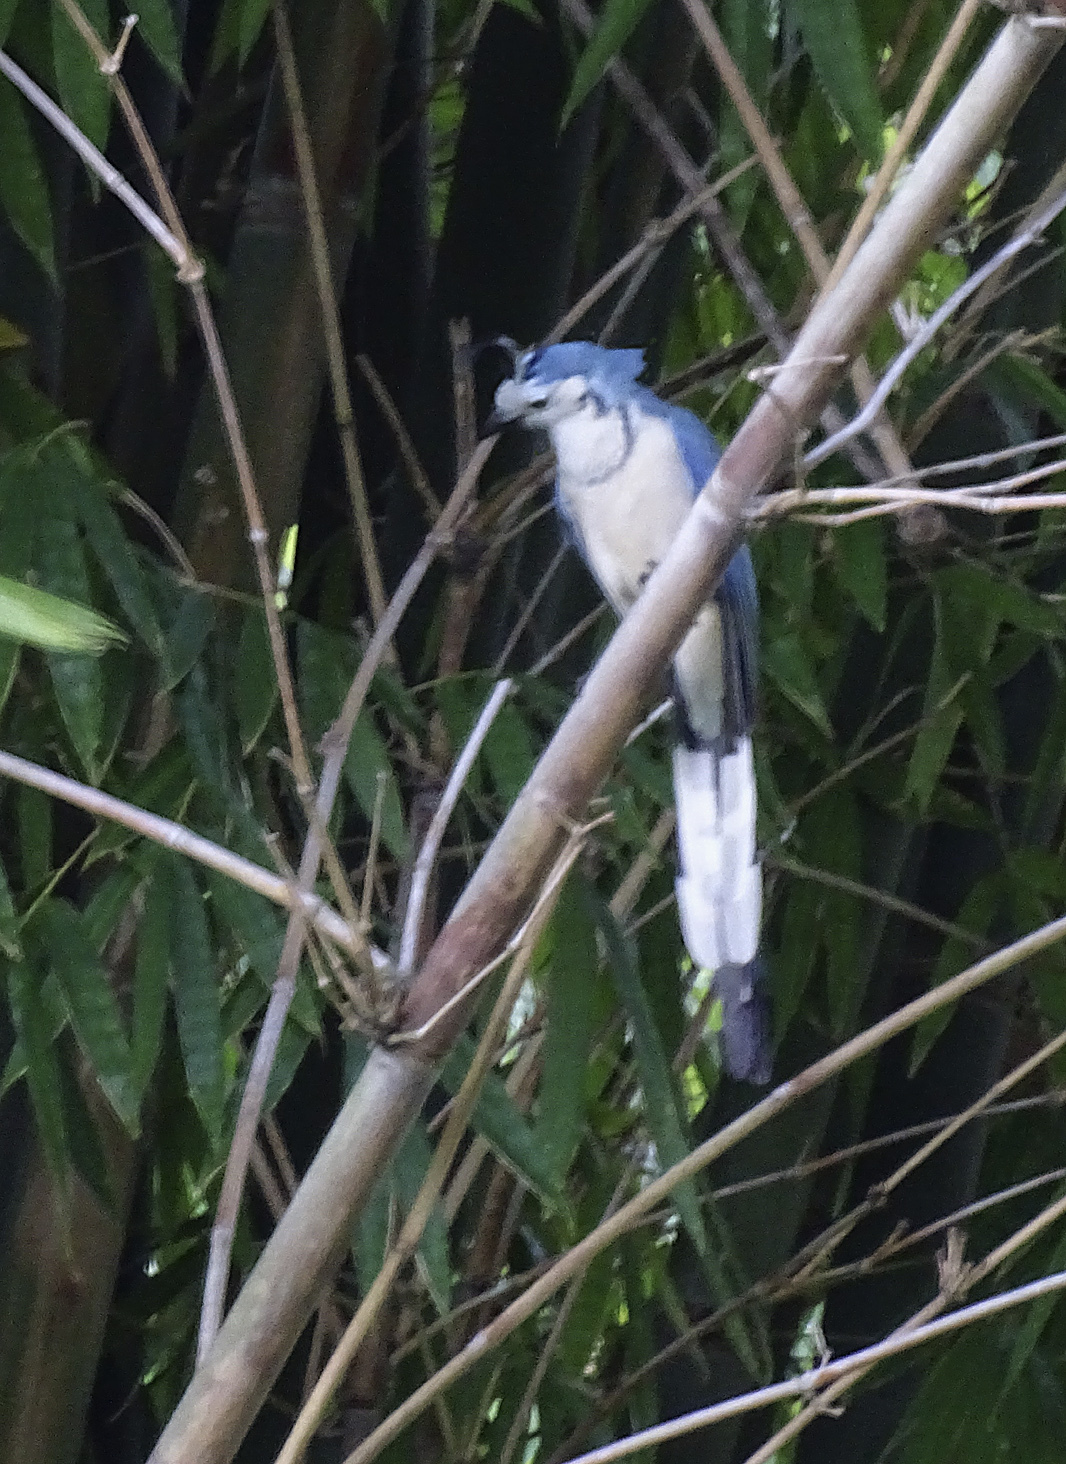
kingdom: Animalia
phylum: Chordata
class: Aves
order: Passeriformes
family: Corvidae
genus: Calocitta
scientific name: Calocitta formosa
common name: White-throated magpie-jay
